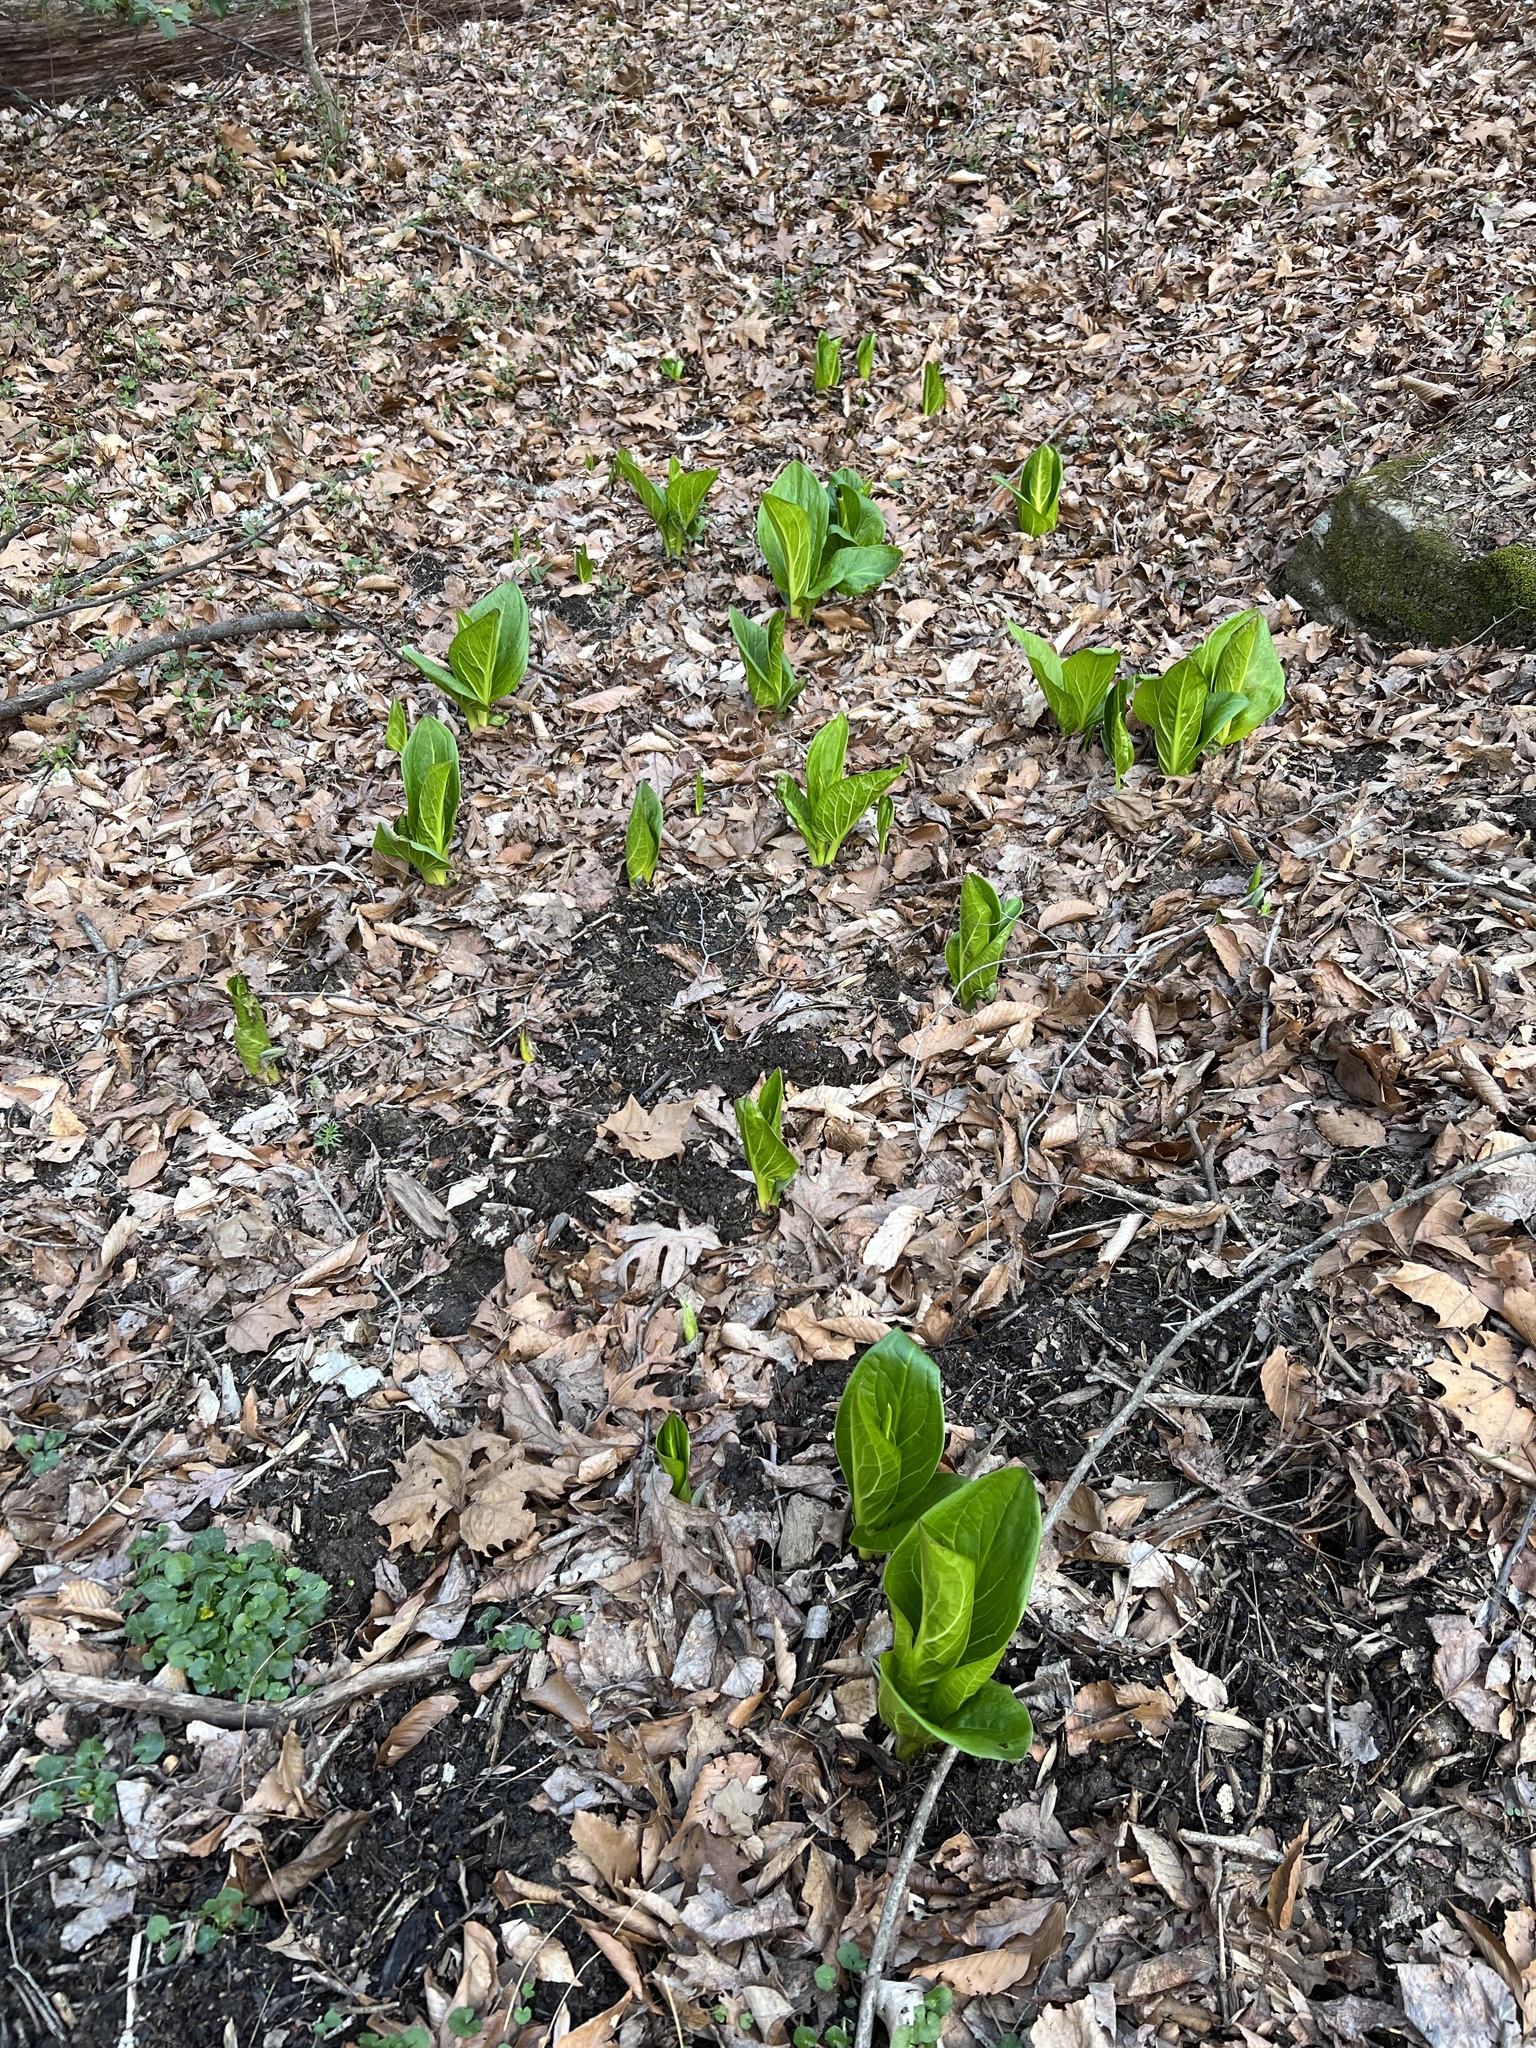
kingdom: Plantae
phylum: Tracheophyta
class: Liliopsida
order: Alismatales
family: Araceae
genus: Symplocarpus
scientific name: Symplocarpus foetidus
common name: Eastern skunk cabbage
